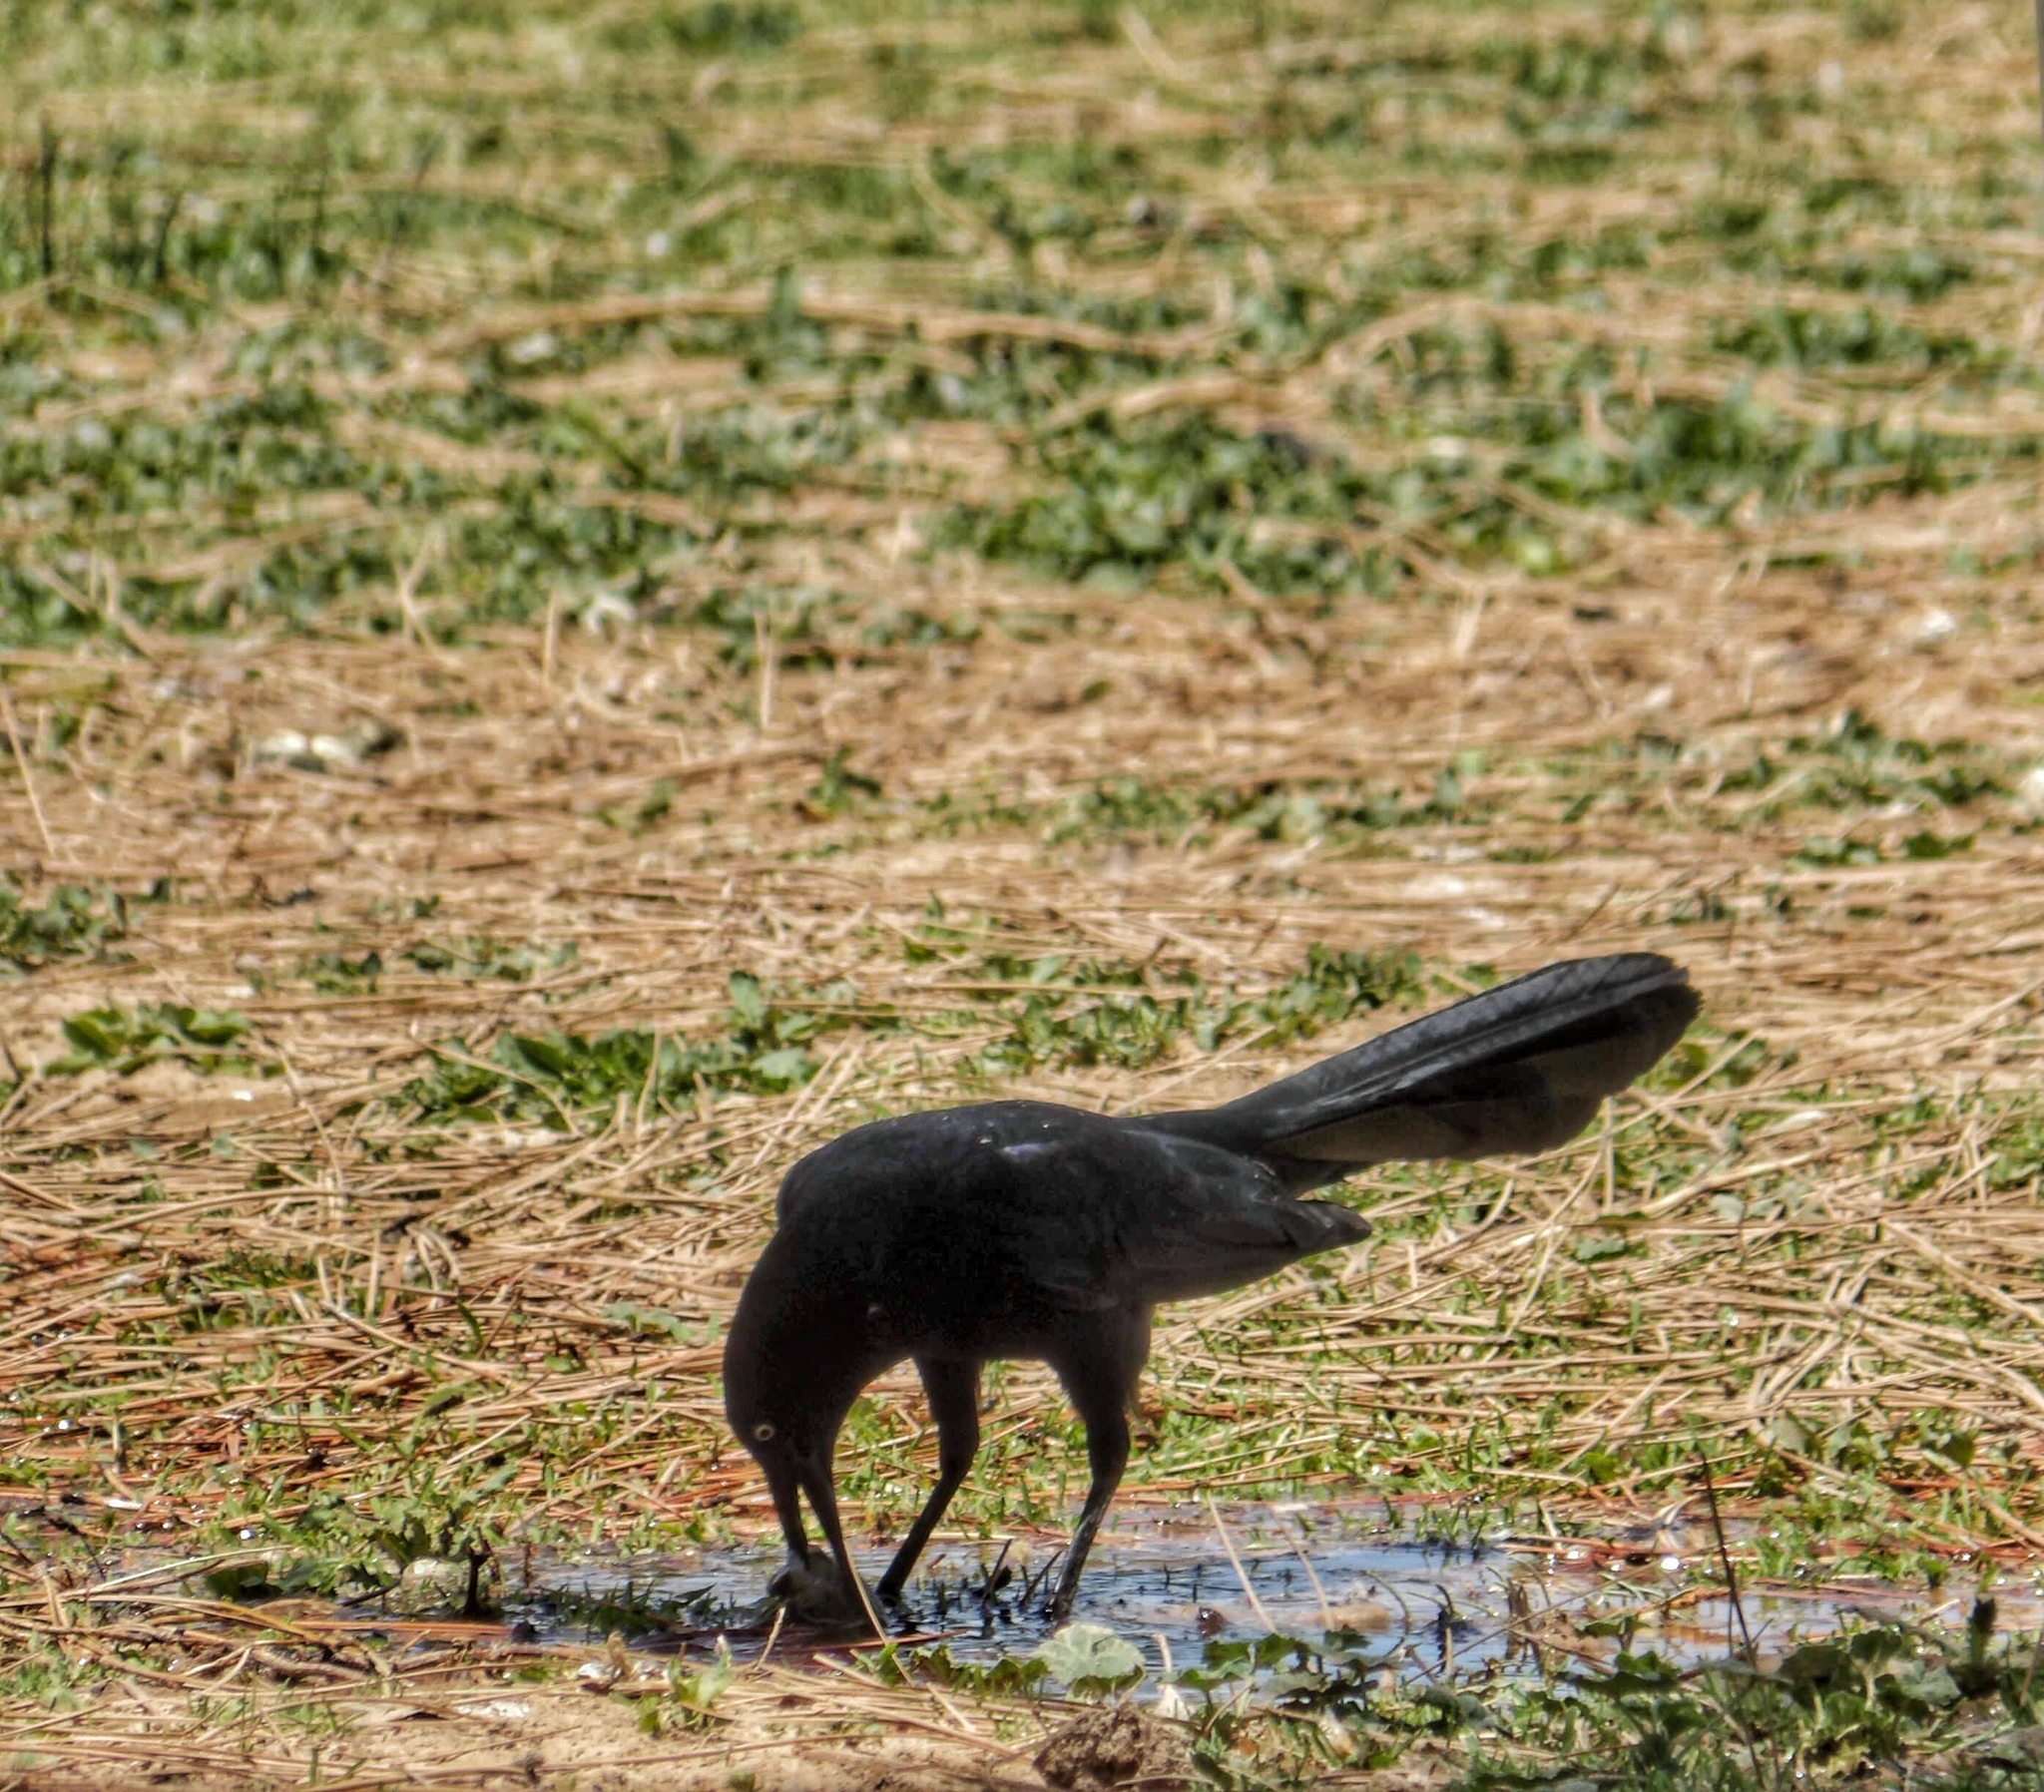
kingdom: Animalia
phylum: Chordata
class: Aves
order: Passeriformes
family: Icteridae
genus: Quiscalus
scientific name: Quiscalus mexicanus
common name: Great-tailed grackle
